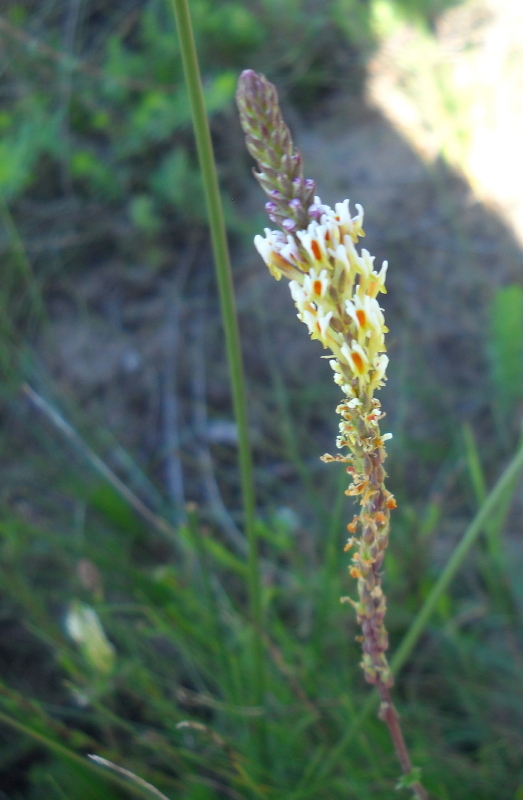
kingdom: Plantae
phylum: Tracheophyta
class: Magnoliopsida
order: Lamiales
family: Scrophulariaceae
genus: Hebenstretia
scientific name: Hebenstretia integrifolia
